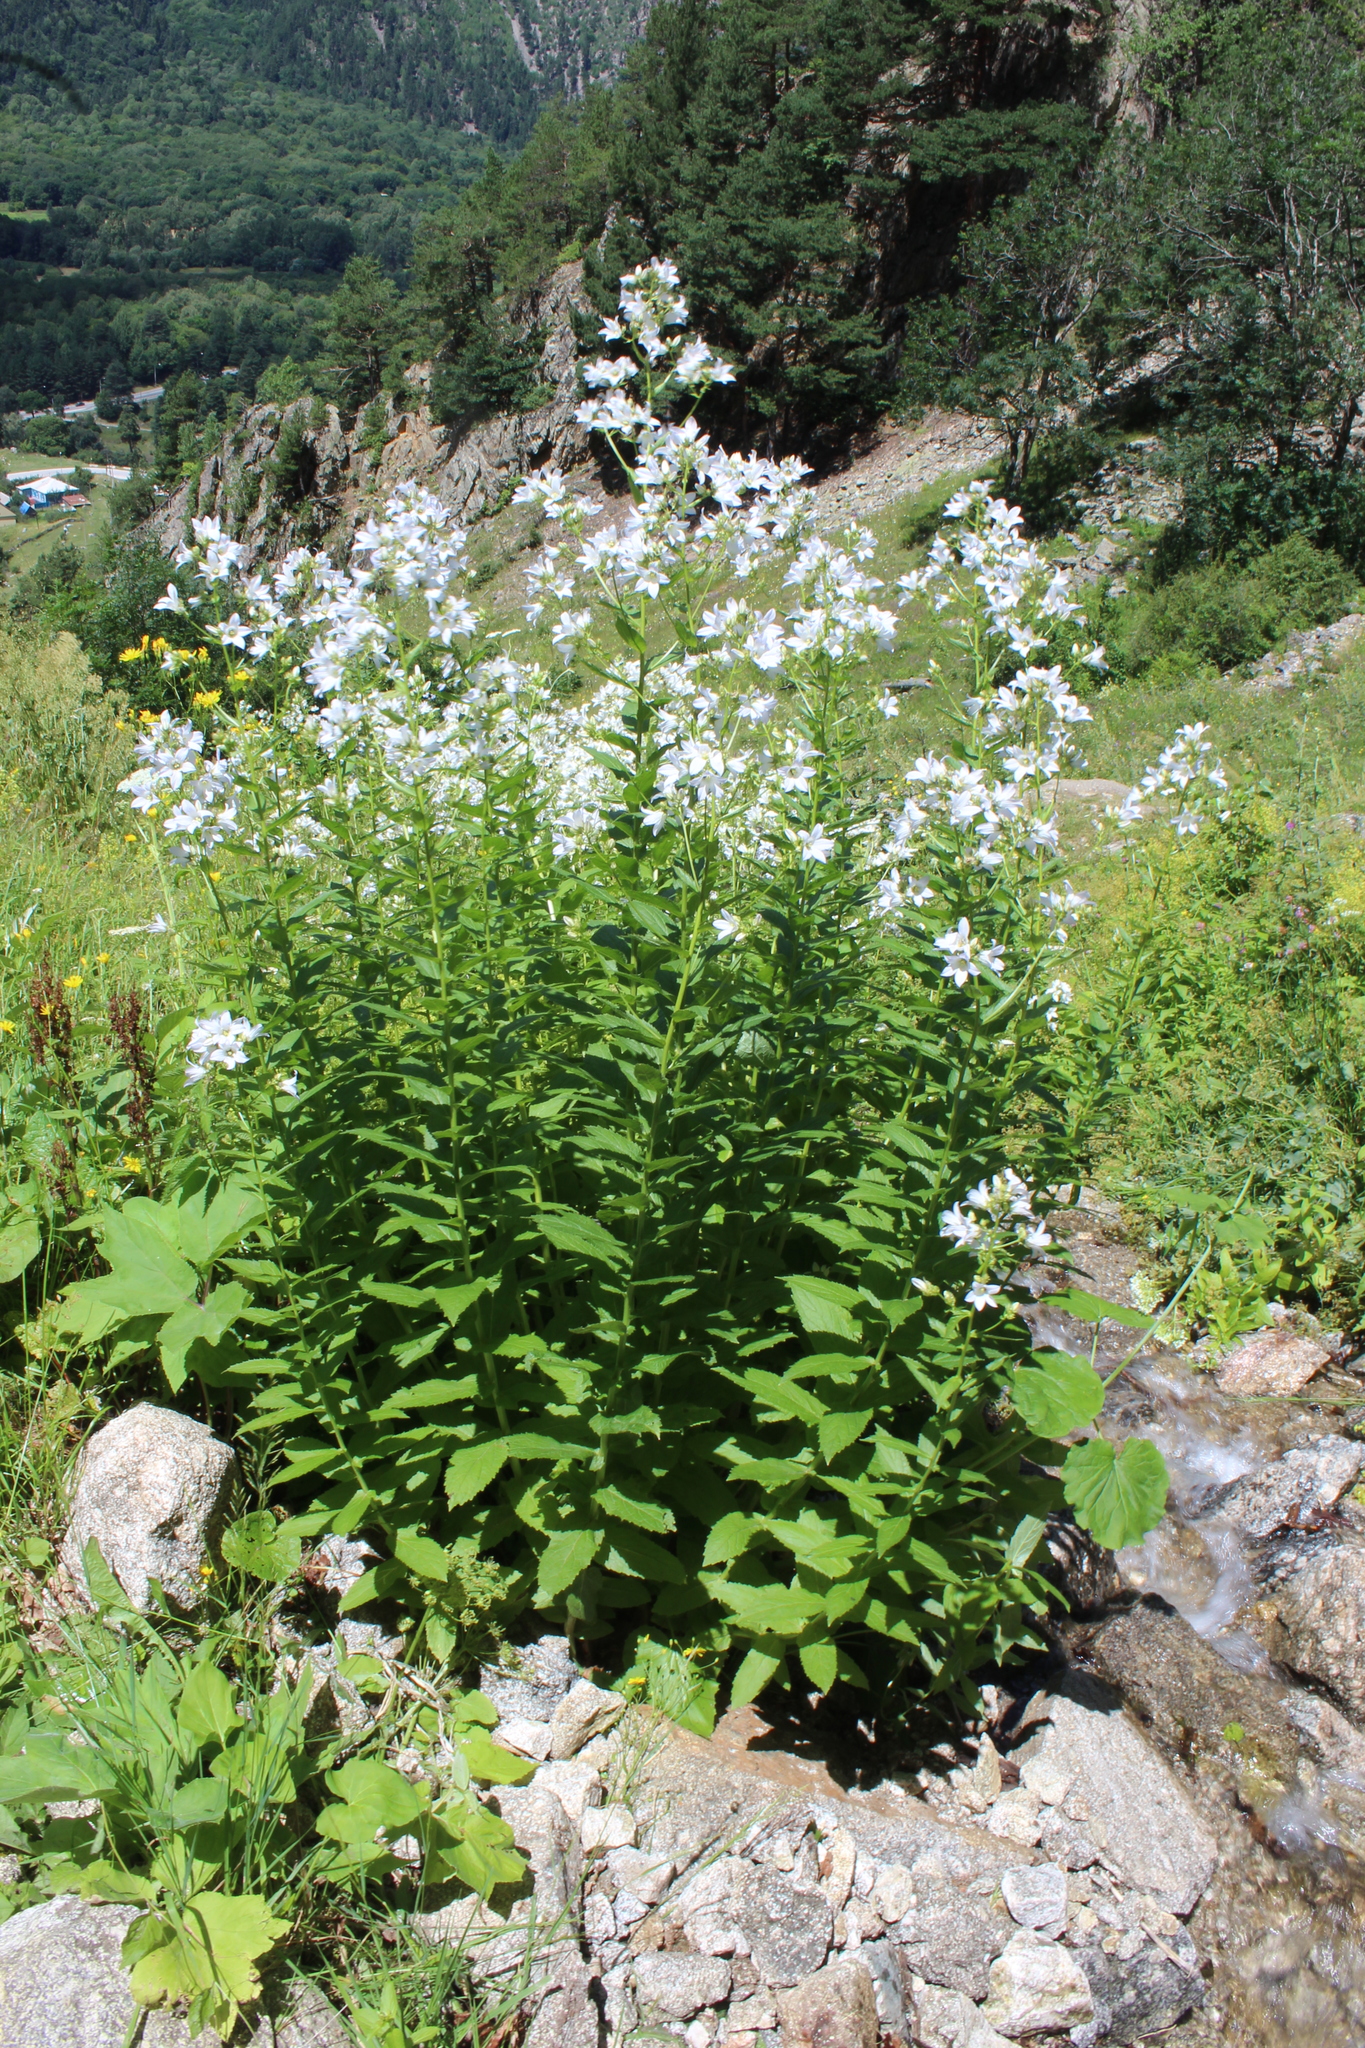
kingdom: Plantae
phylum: Tracheophyta
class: Magnoliopsida
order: Asterales
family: Campanulaceae
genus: Campanula
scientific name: Campanula lactiflora
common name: Milky bellflower
